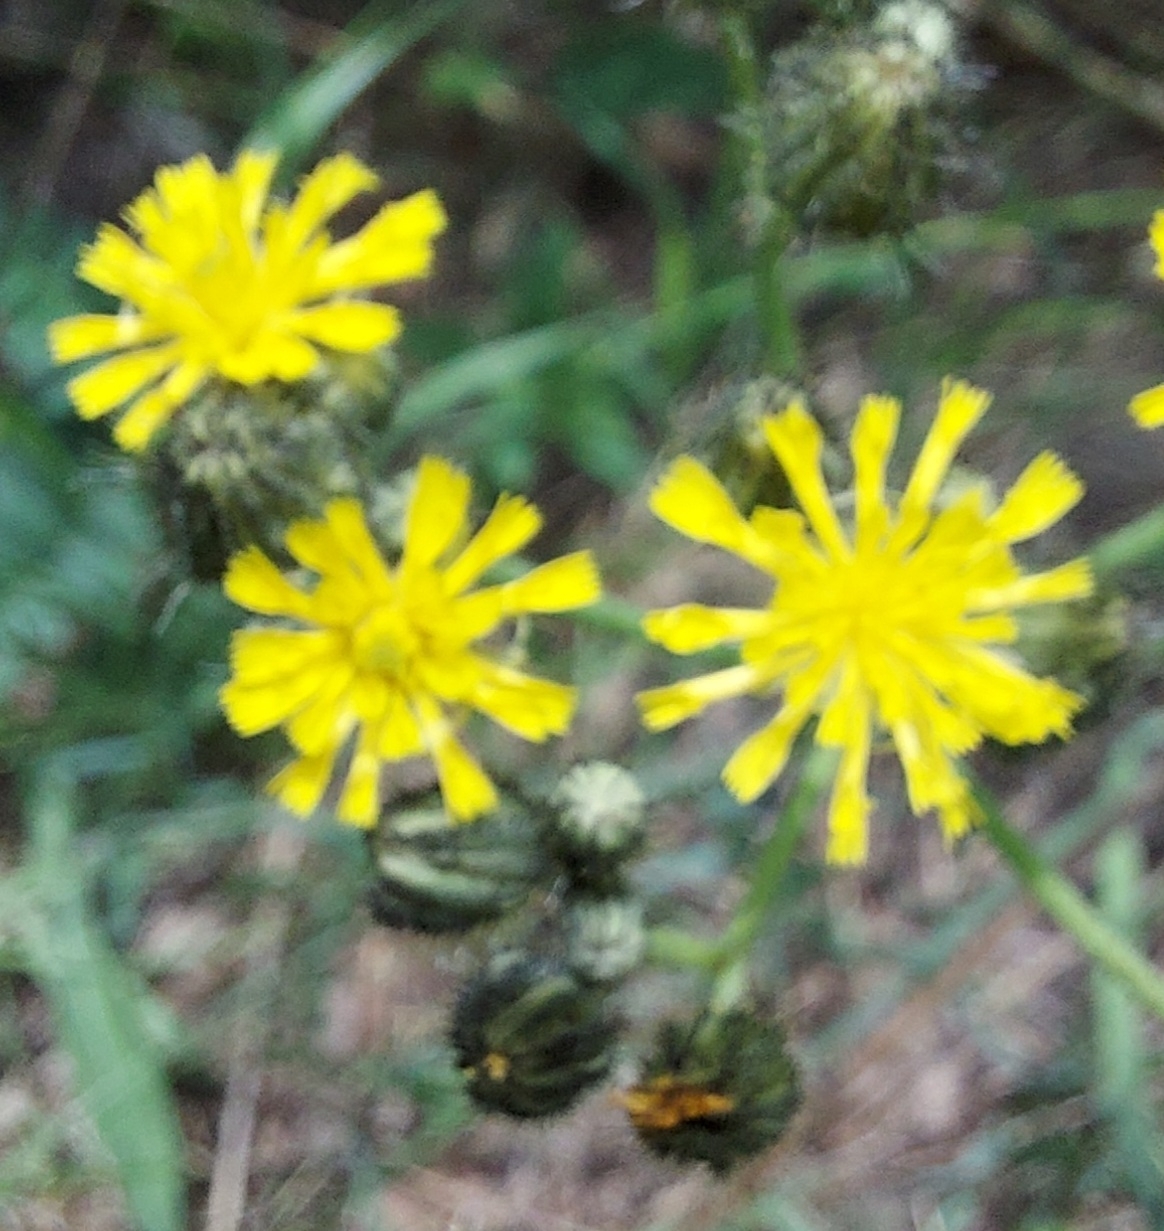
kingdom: Plantae
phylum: Tracheophyta
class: Magnoliopsida
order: Asterales
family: Asteraceae
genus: Pilosella
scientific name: Pilosella
